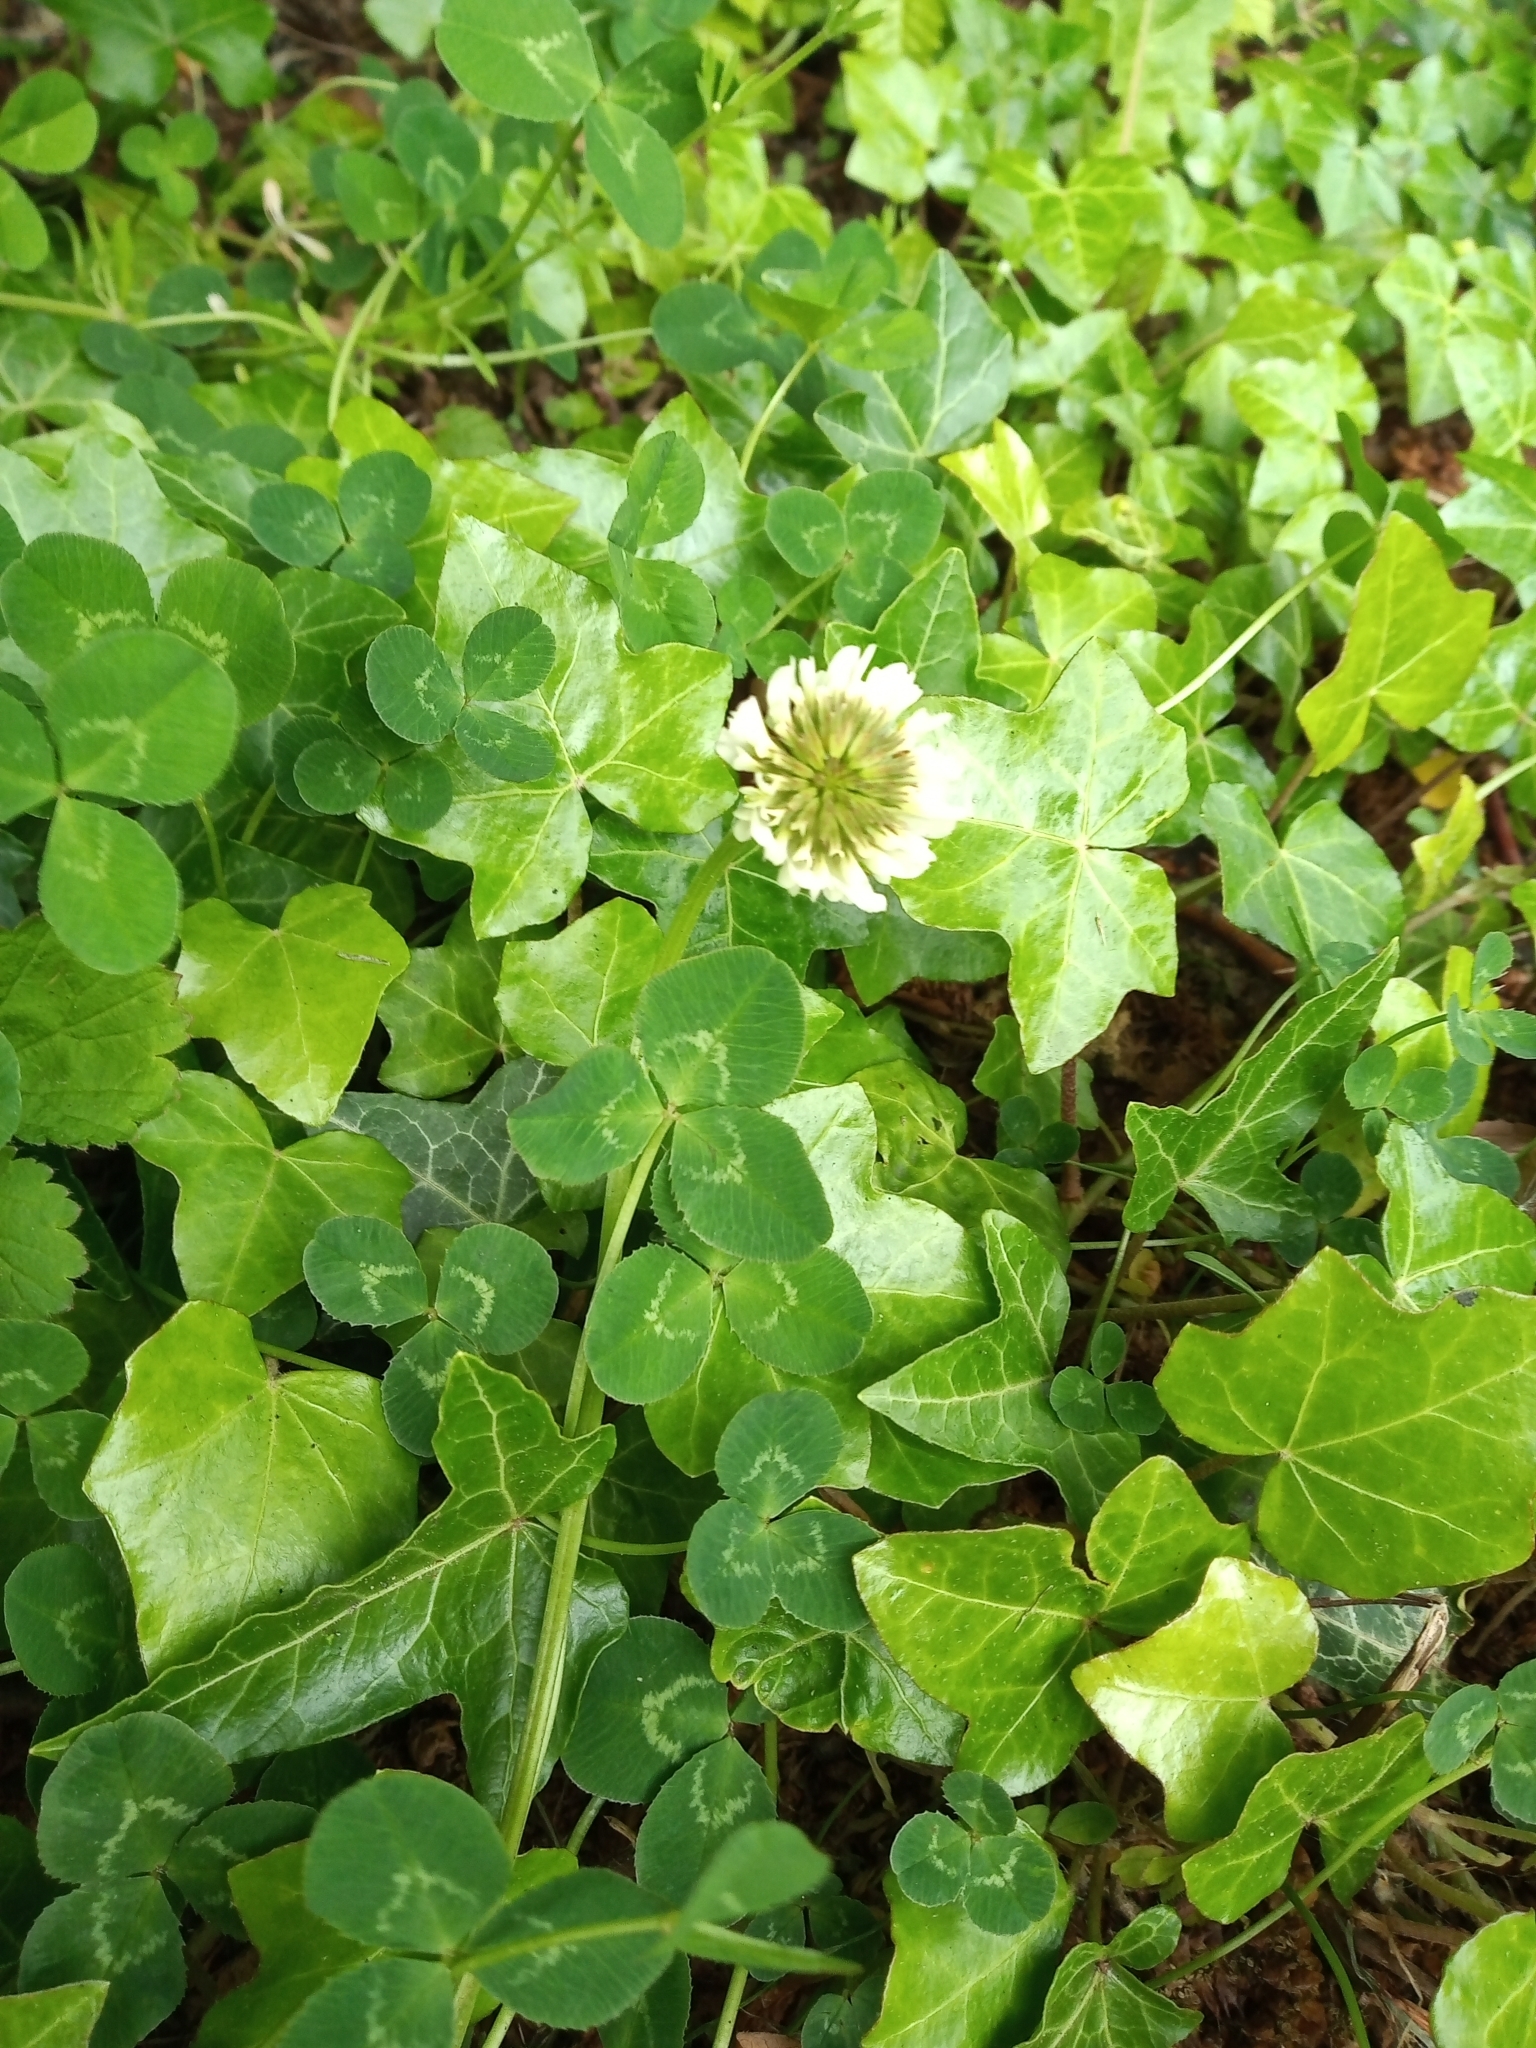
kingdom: Plantae
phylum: Tracheophyta
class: Magnoliopsida
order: Fabales
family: Fabaceae
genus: Trifolium
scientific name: Trifolium repens
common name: White clover
